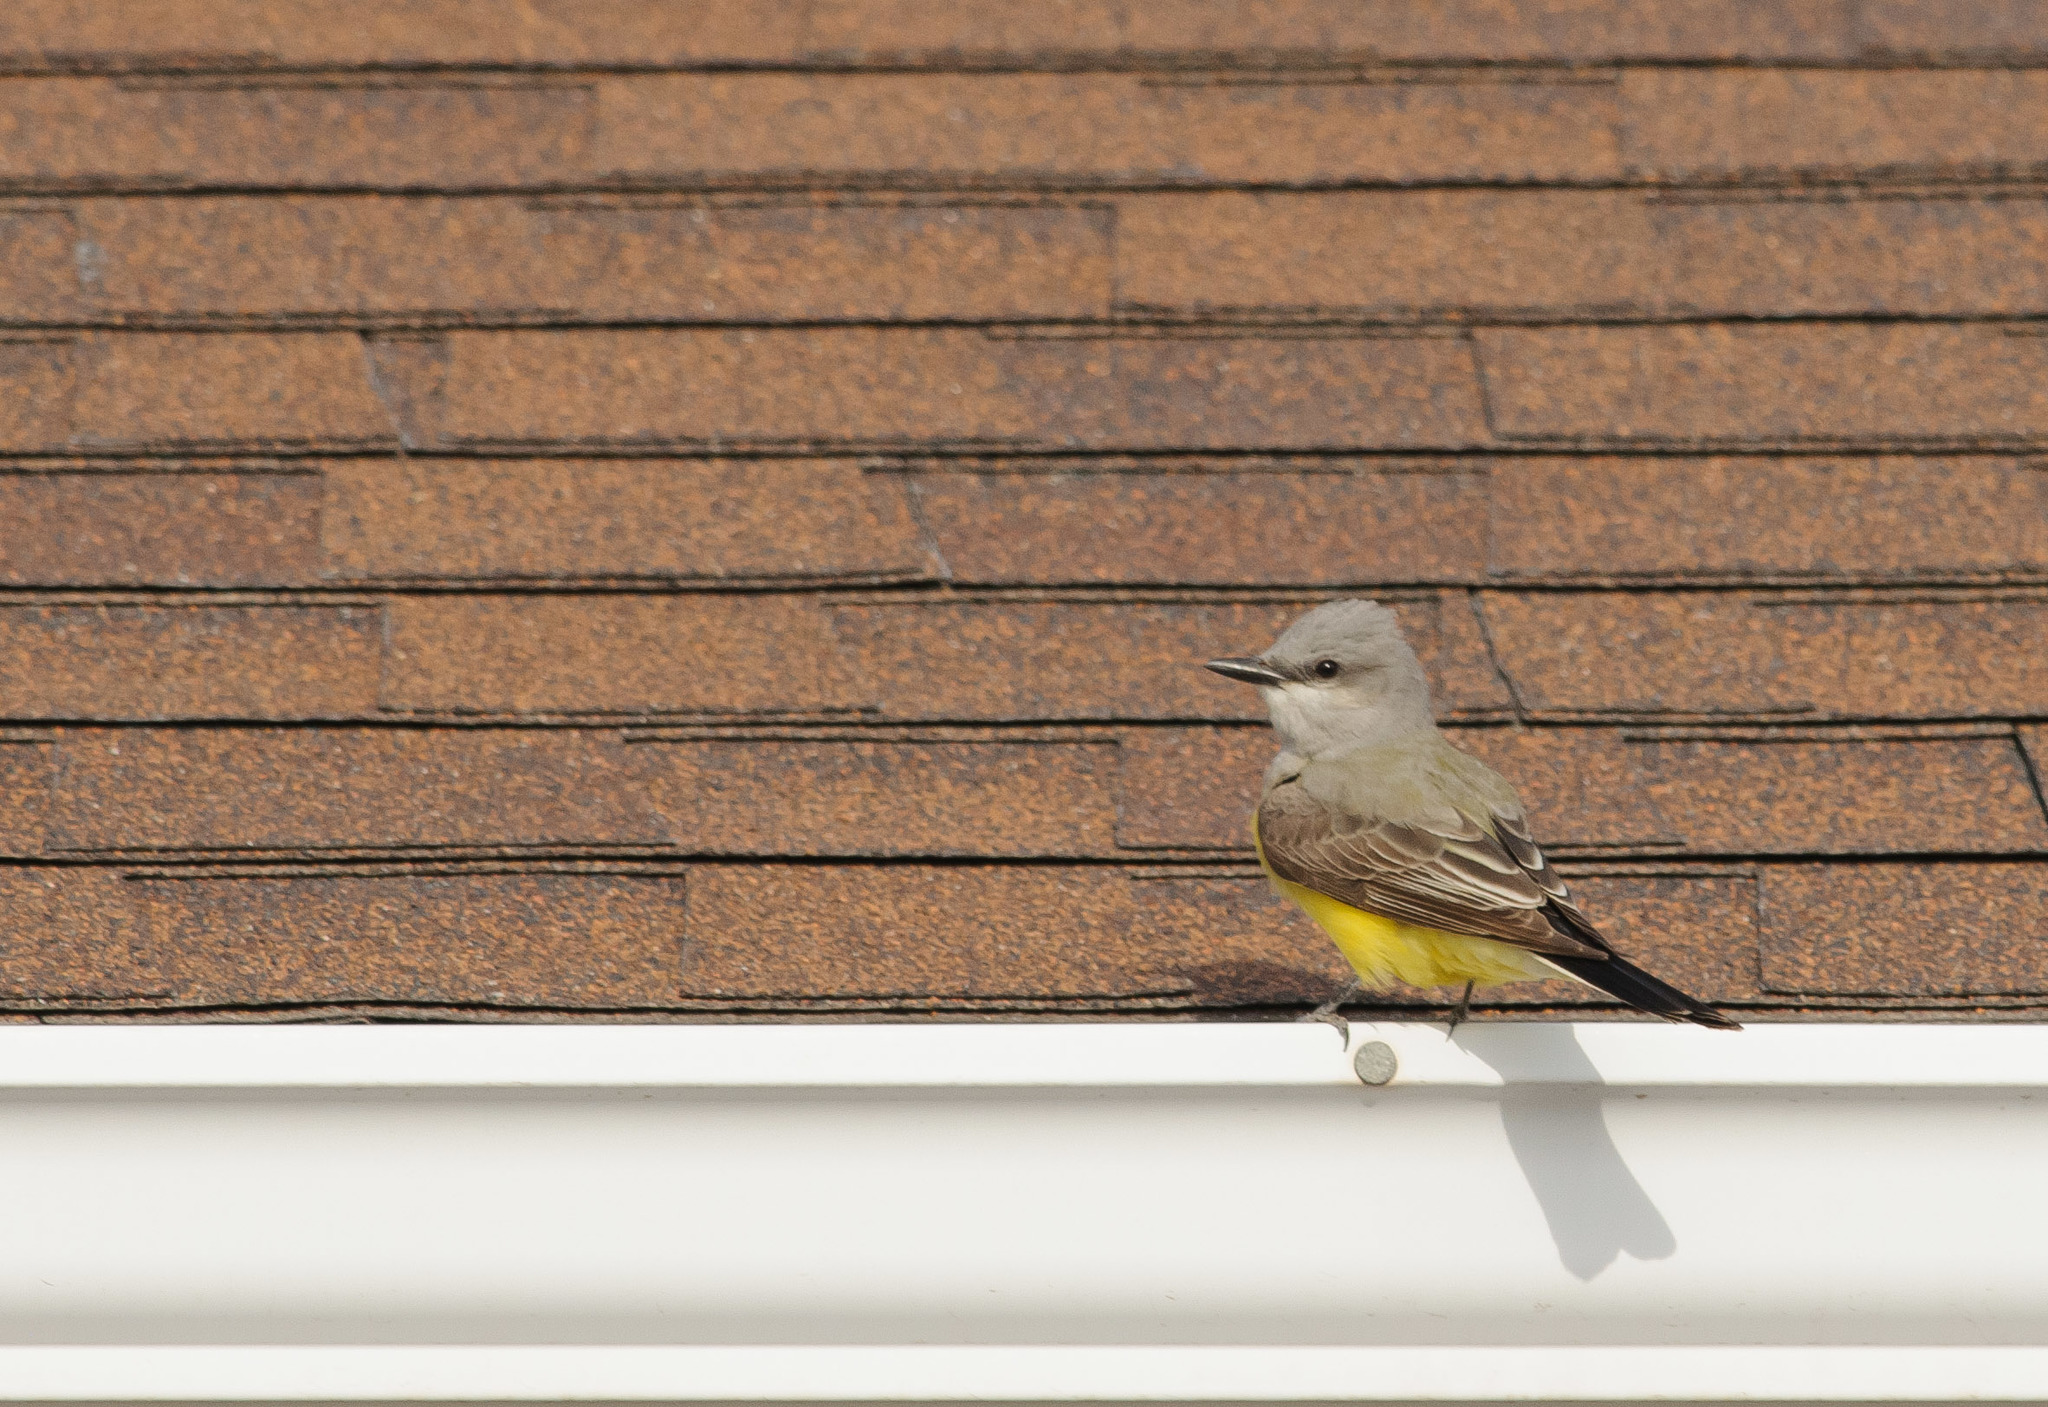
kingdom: Animalia
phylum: Chordata
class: Aves
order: Passeriformes
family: Tyrannidae
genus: Tyrannus
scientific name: Tyrannus verticalis
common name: Western kingbird
